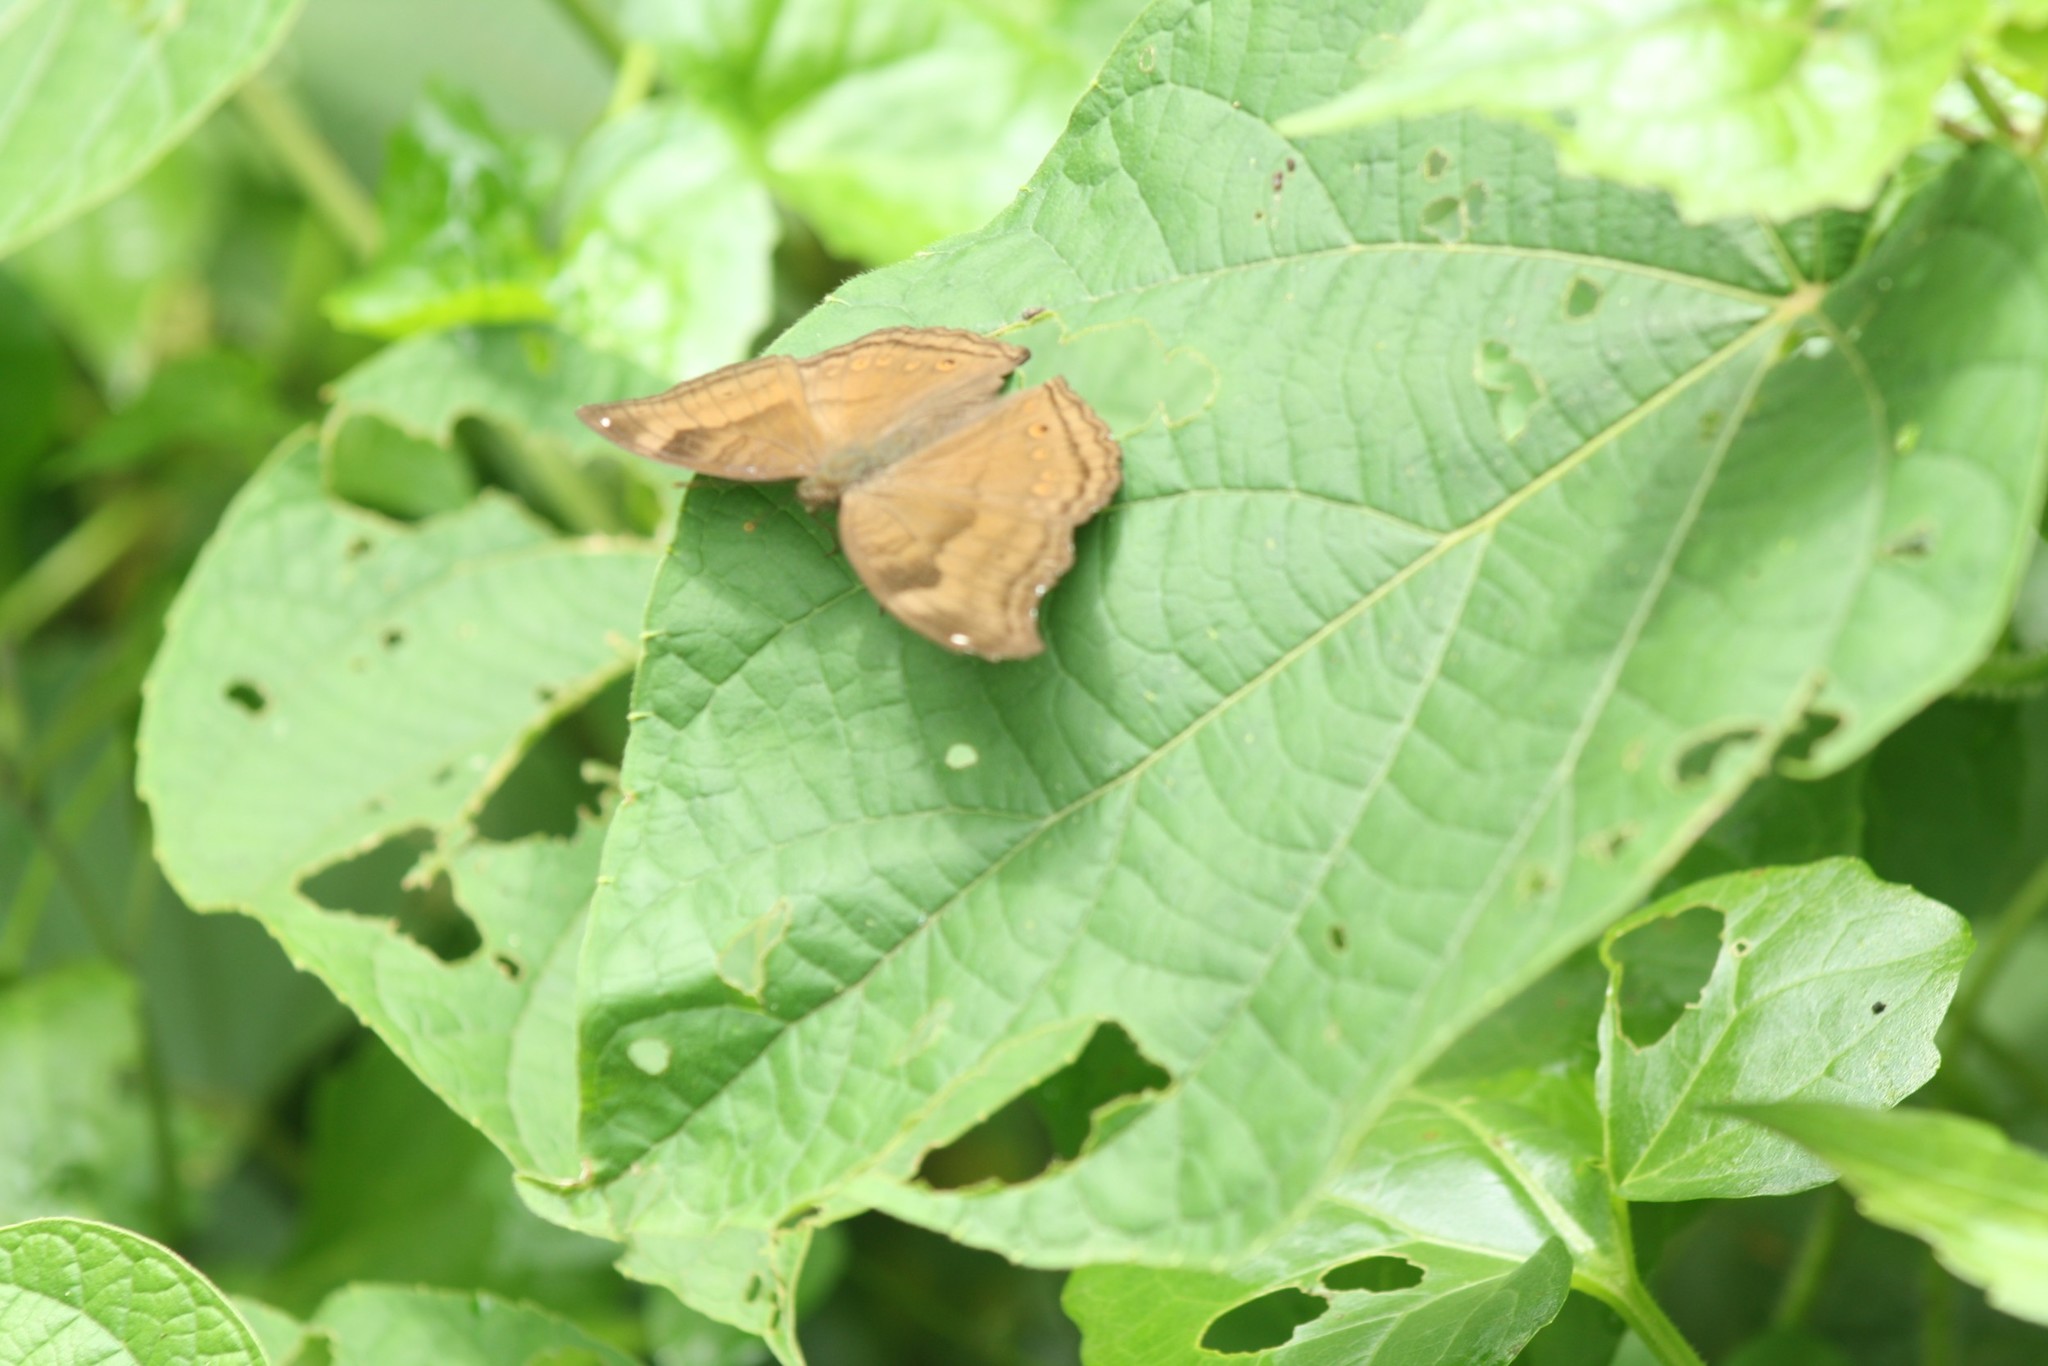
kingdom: Animalia
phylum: Arthropoda
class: Insecta
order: Lepidoptera
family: Nymphalidae
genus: Junonia
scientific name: Junonia iphita
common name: Chocolate pansy
